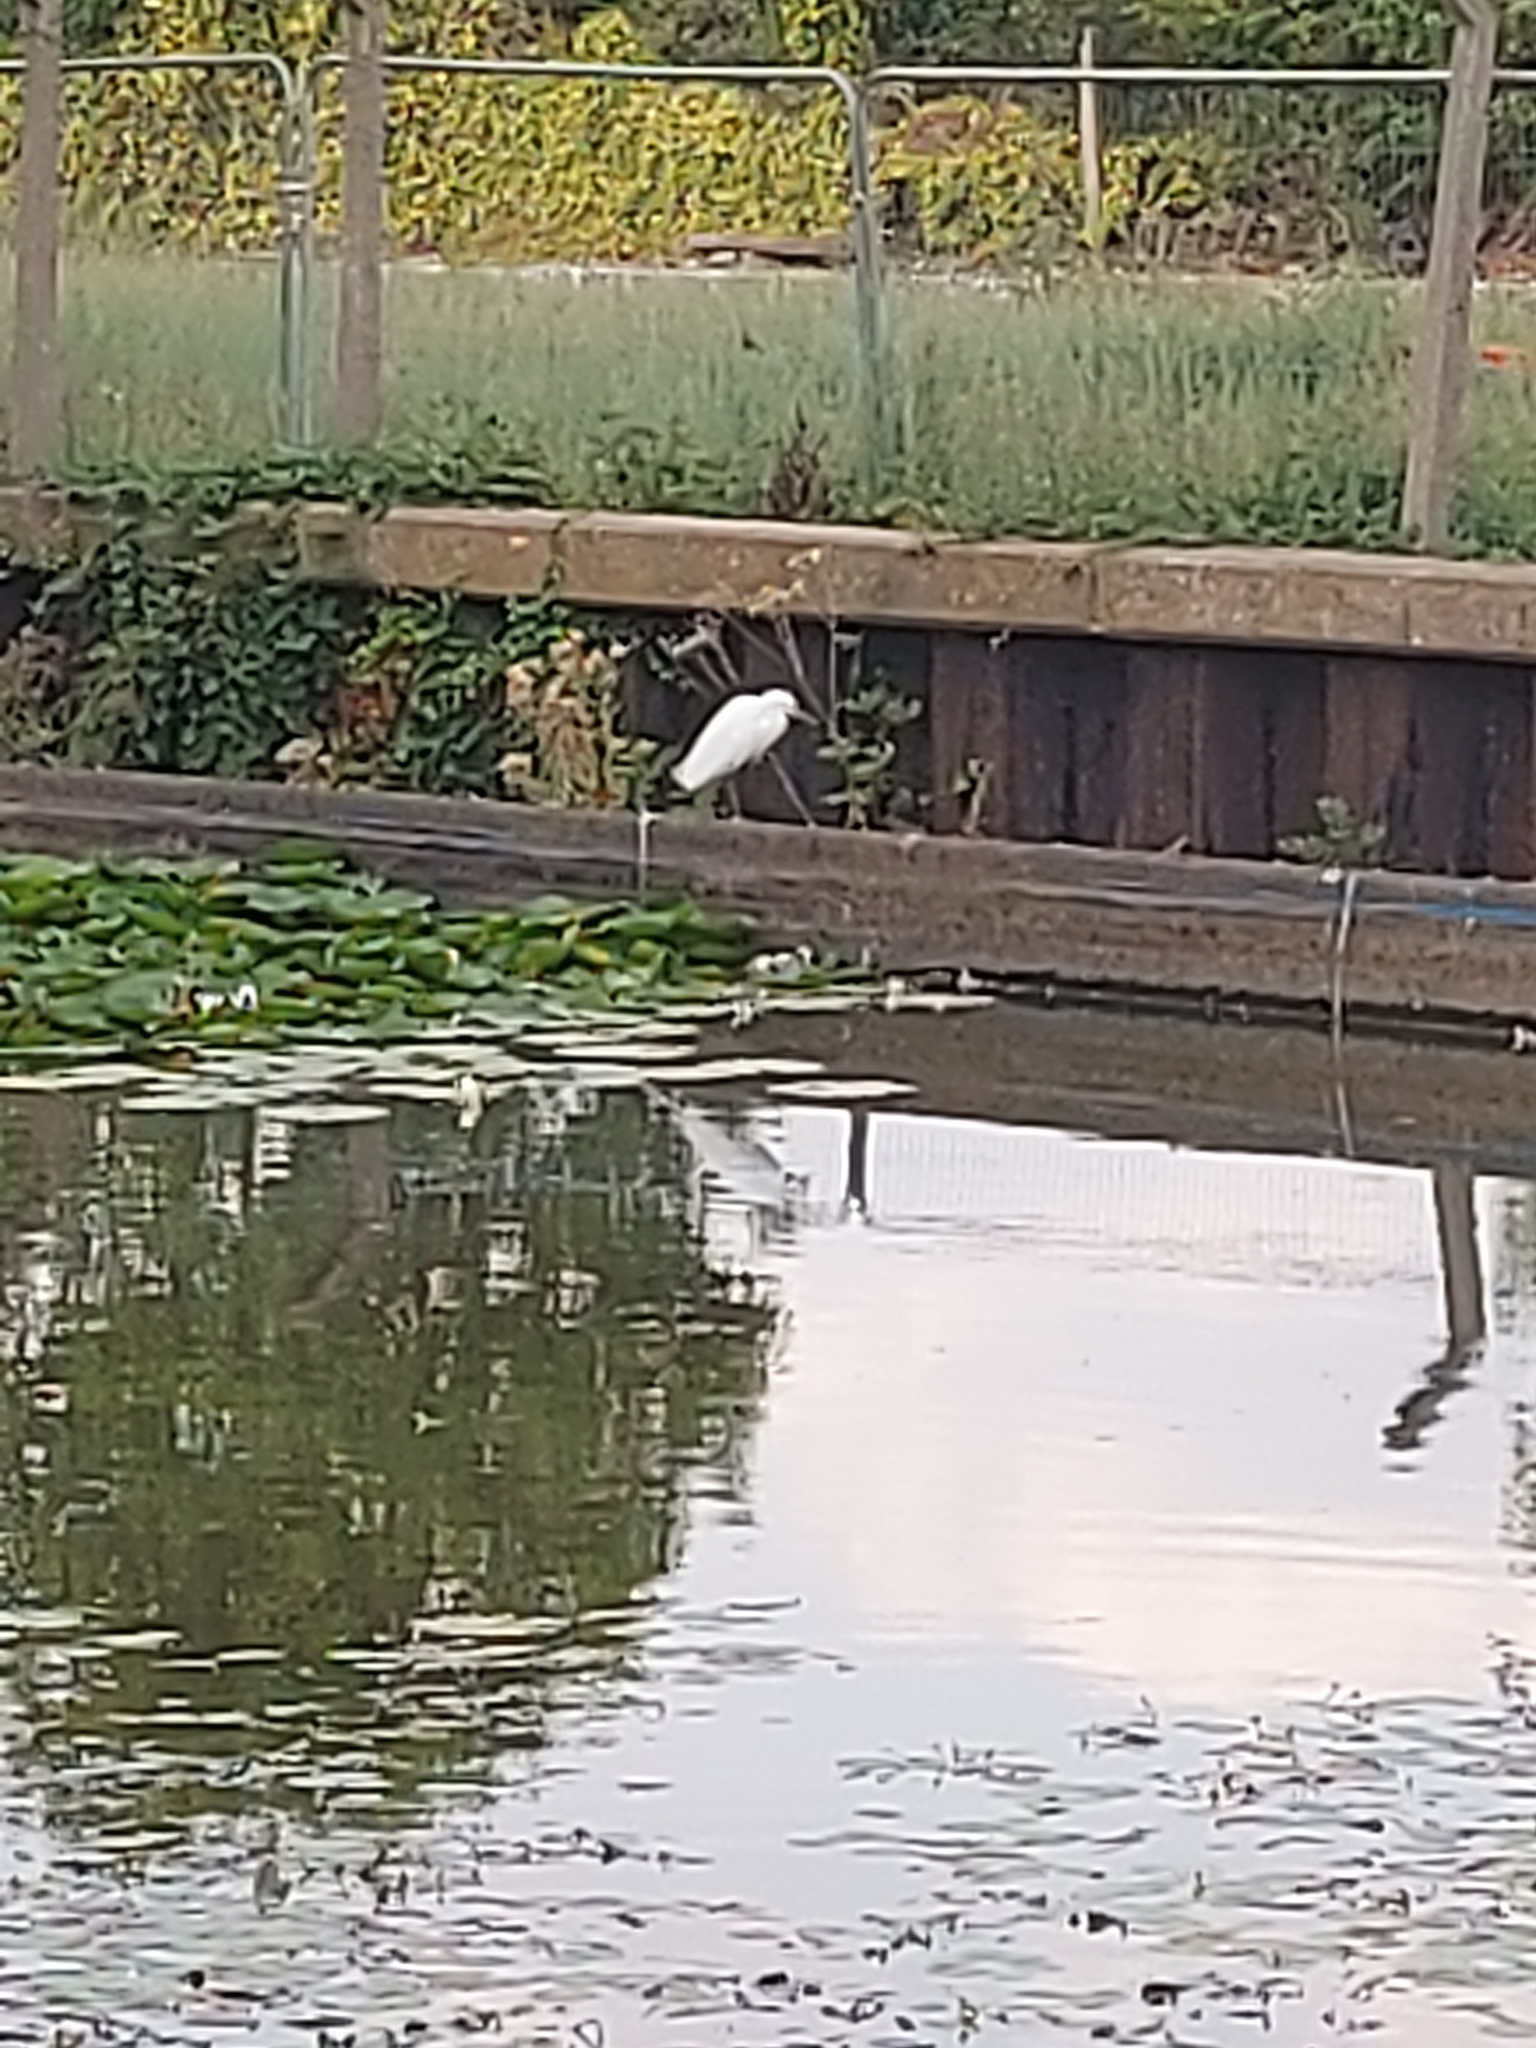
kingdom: Animalia
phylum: Chordata
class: Aves
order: Pelecaniformes
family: Ardeidae
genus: Egretta
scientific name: Egretta garzetta
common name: Little egret
